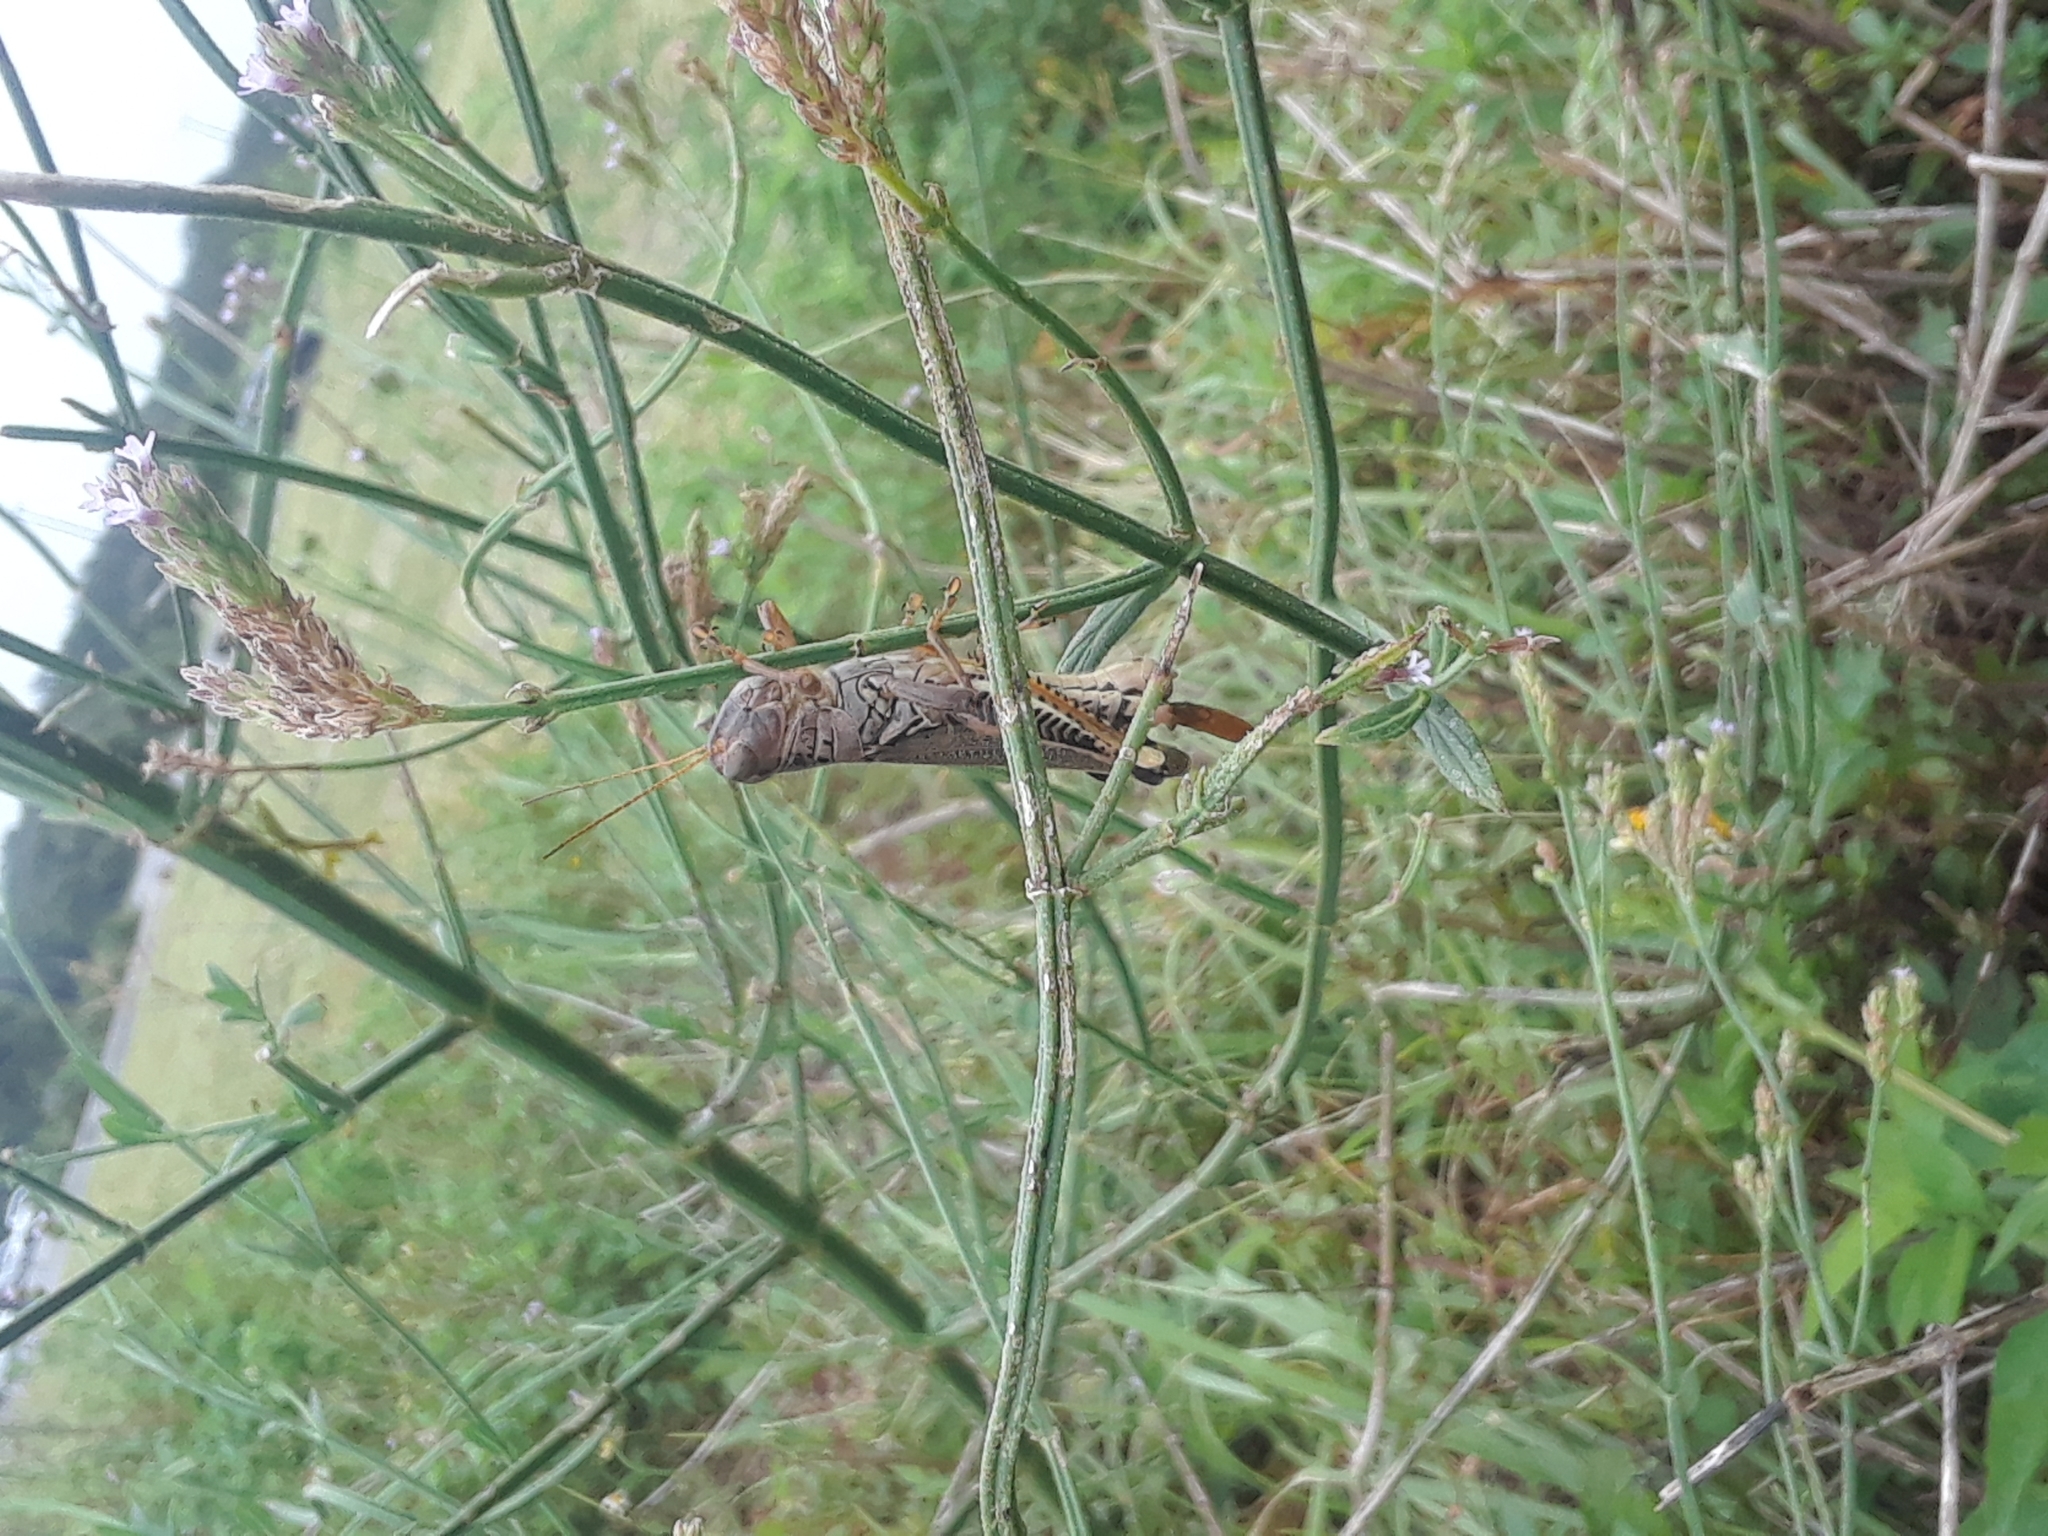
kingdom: Animalia
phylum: Arthropoda
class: Insecta
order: Orthoptera
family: Acrididae
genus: Melanoplus
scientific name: Melanoplus differentialis
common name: Differential grasshopper
